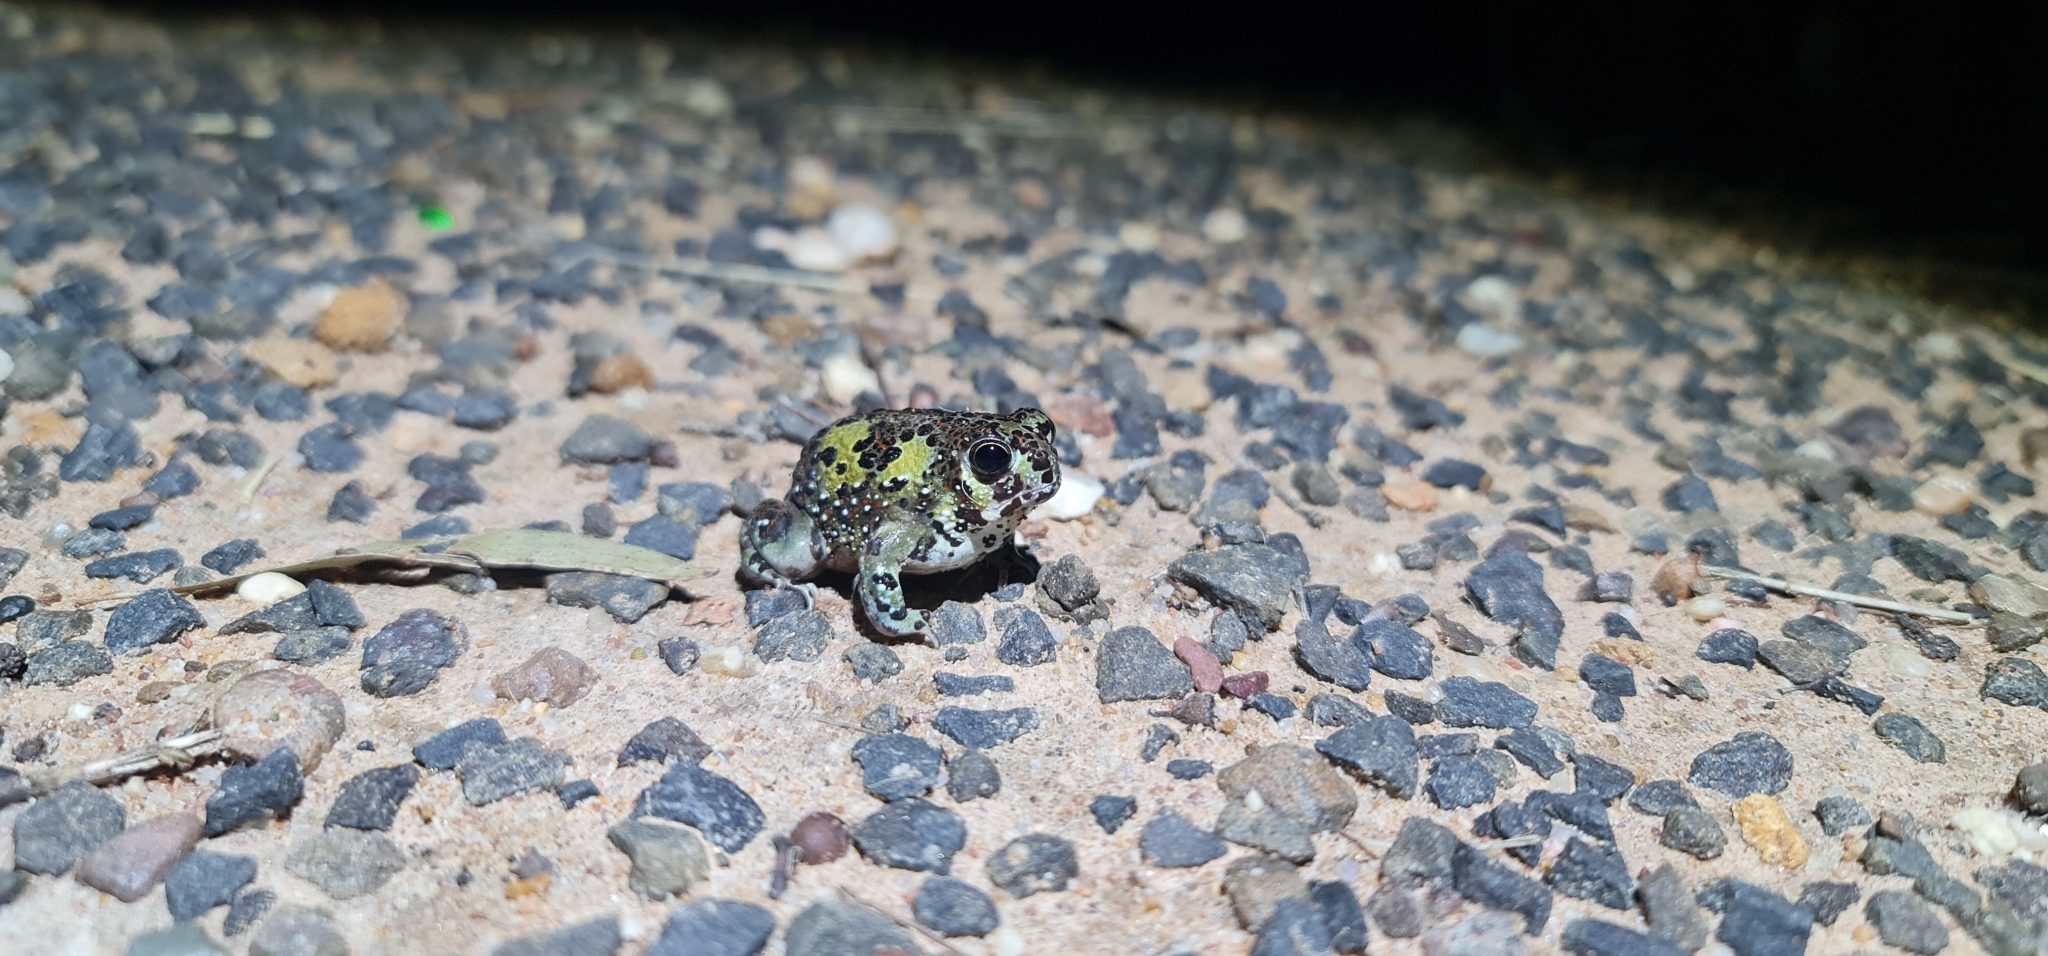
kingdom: Animalia
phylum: Chordata
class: Amphibia
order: Anura
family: Limnodynastidae
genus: Notaden
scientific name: Notaden bennettii
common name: Crucifix frog
